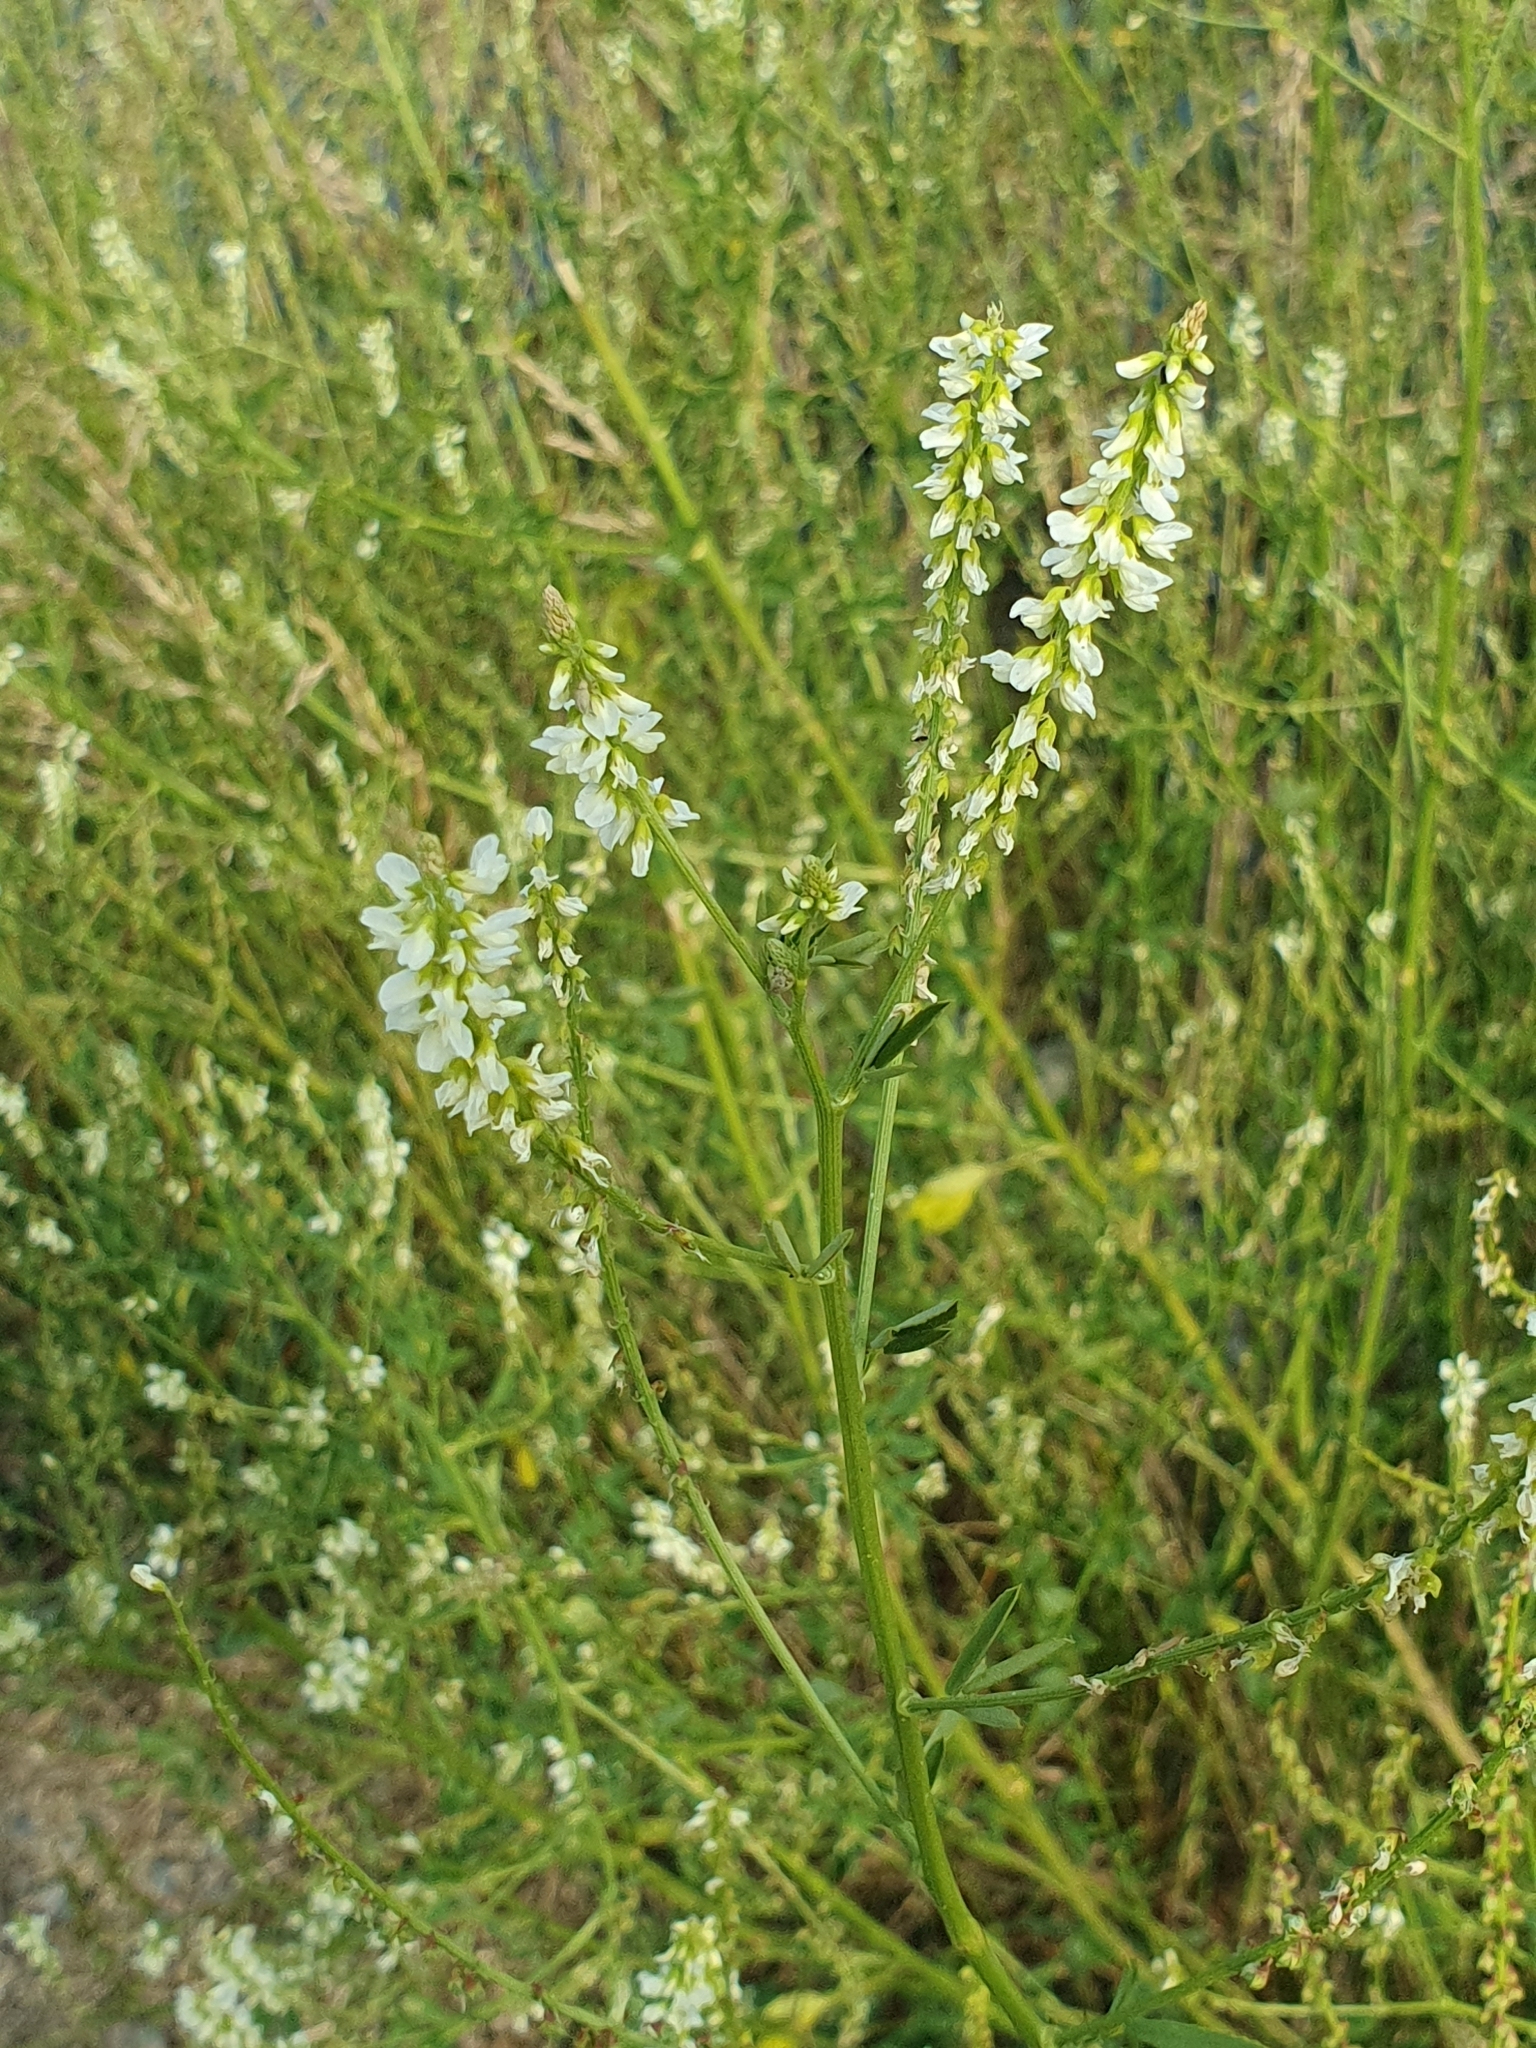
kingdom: Plantae
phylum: Tracheophyta
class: Magnoliopsida
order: Fabales
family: Fabaceae
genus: Melilotus
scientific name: Melilotus albus
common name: White melilot
